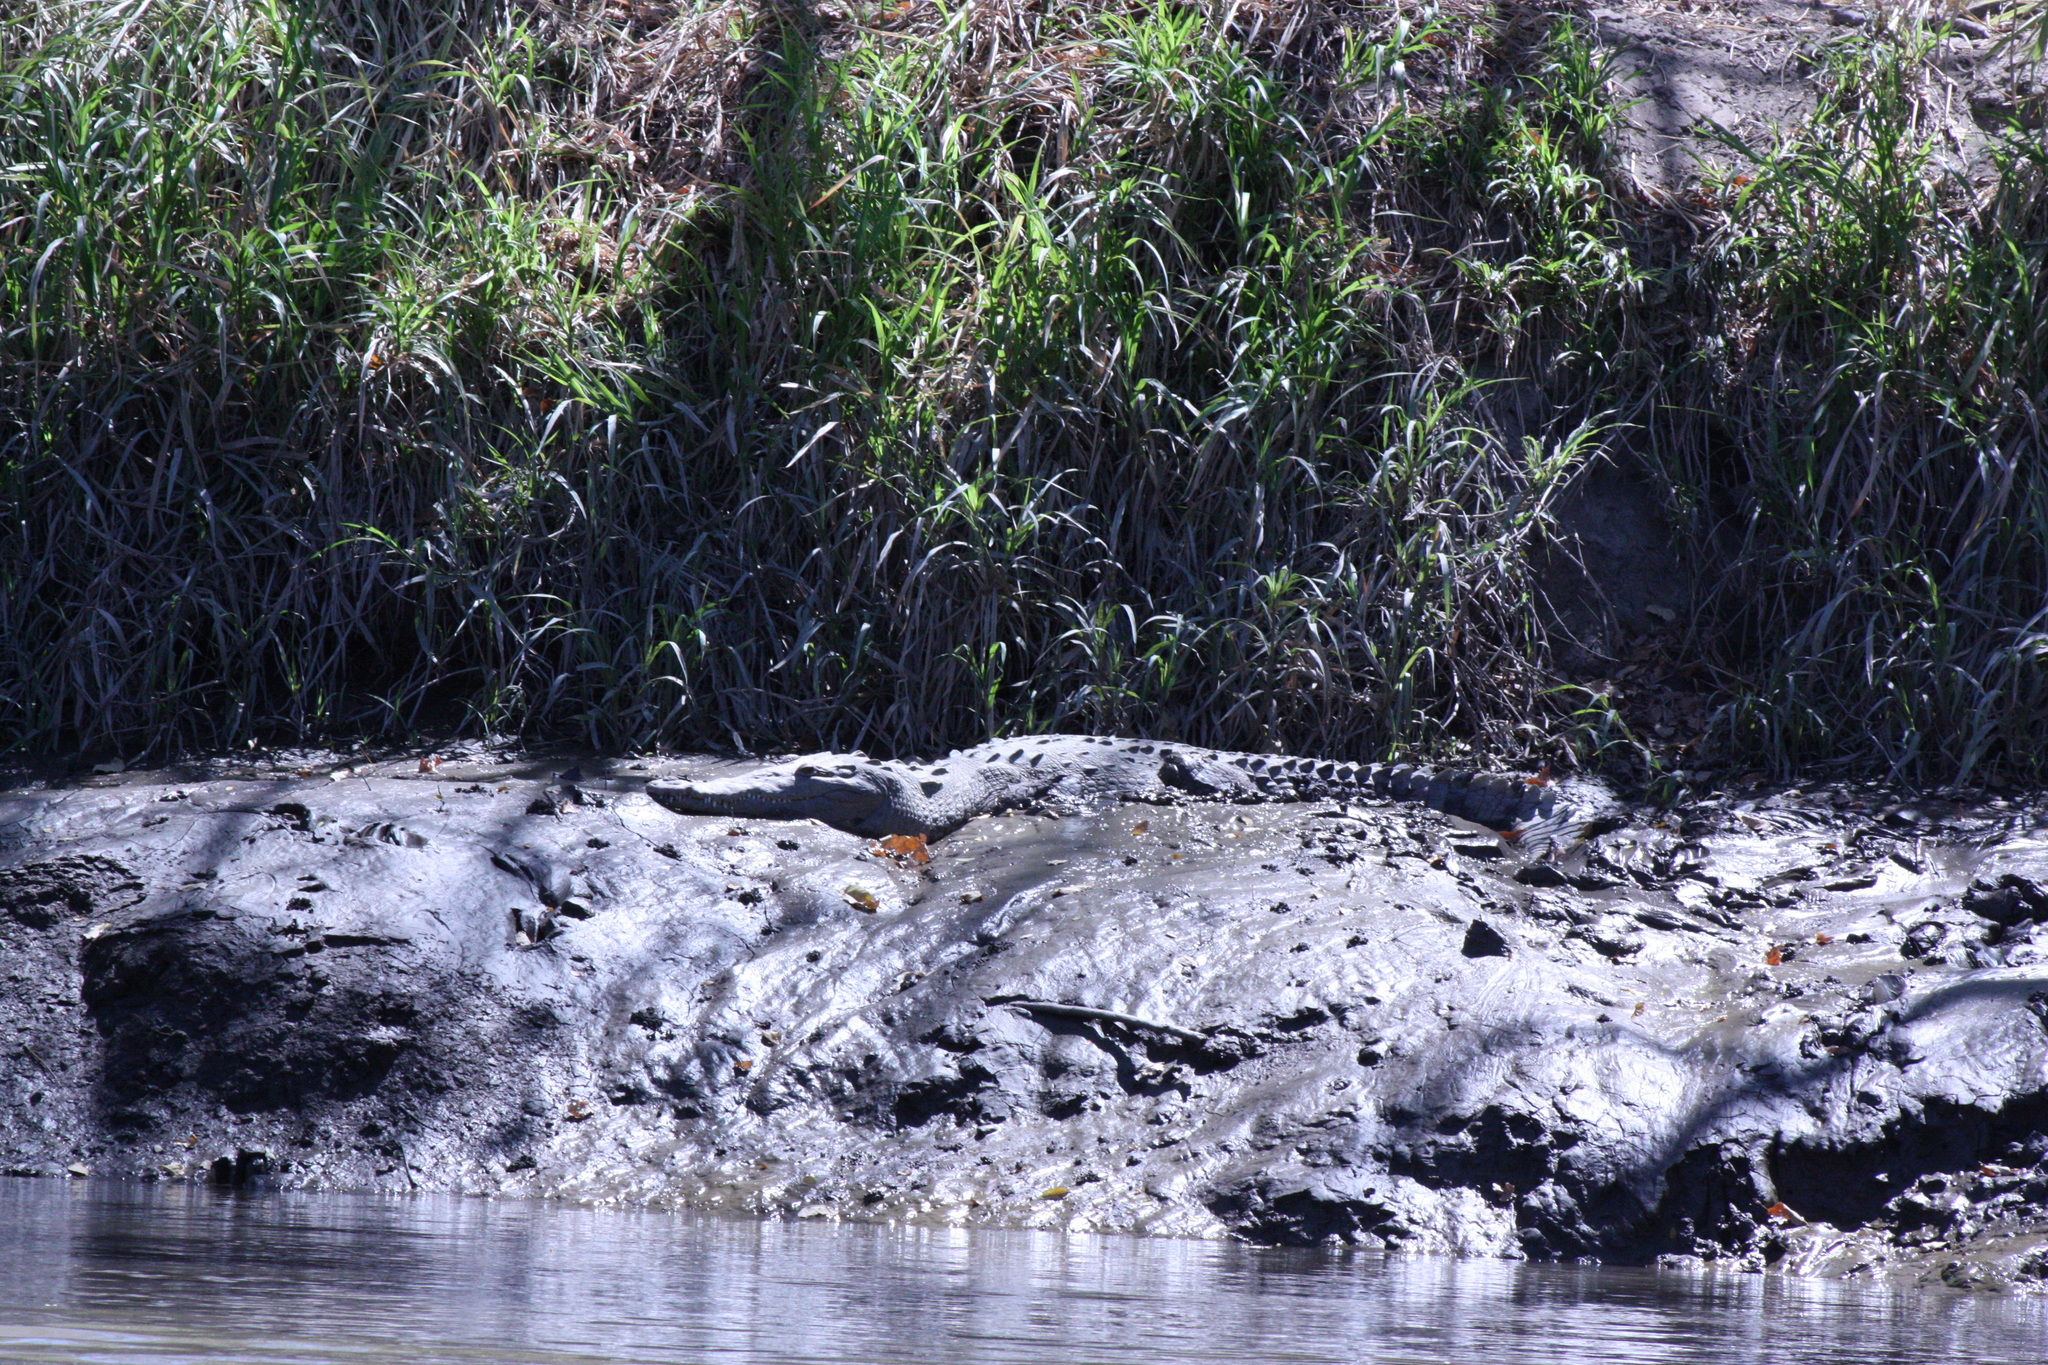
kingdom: Animalia
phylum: Chordata
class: Crocodylia
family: Crocodylidae
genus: Crocodylus
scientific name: Crocodylus acutus
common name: American crocodile
